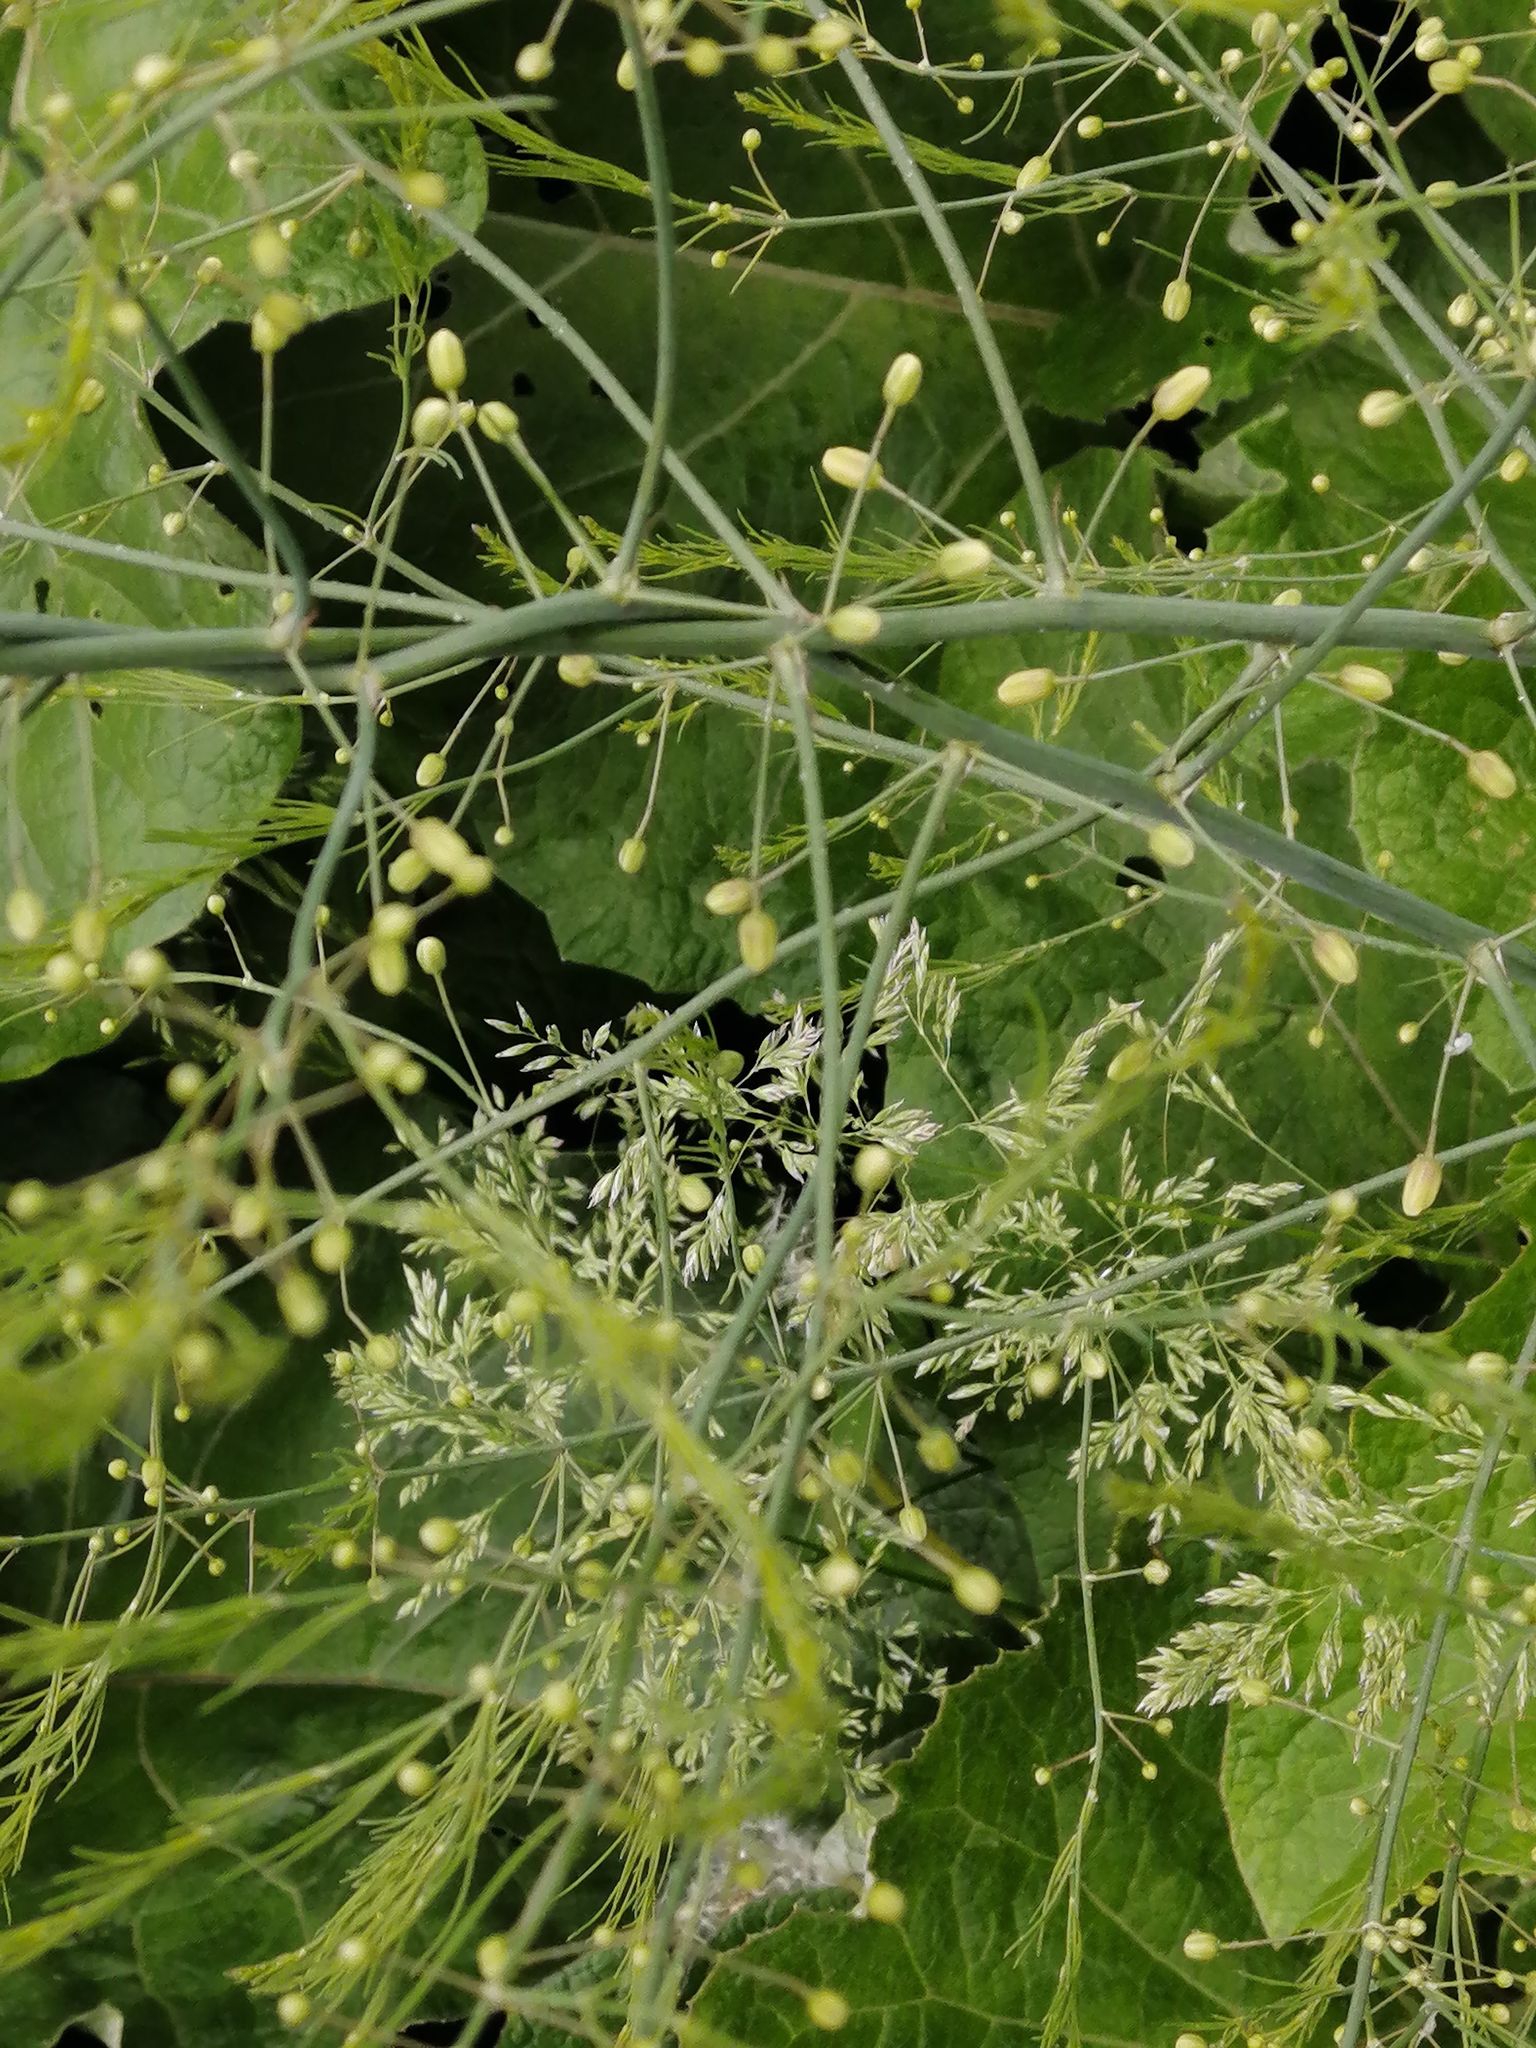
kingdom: Plantae
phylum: Tracheophyta
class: Liliopsida
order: Asparagales
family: Asparagaceae
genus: Asparagus
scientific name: Asparagus officinalis
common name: Garden asparagus
